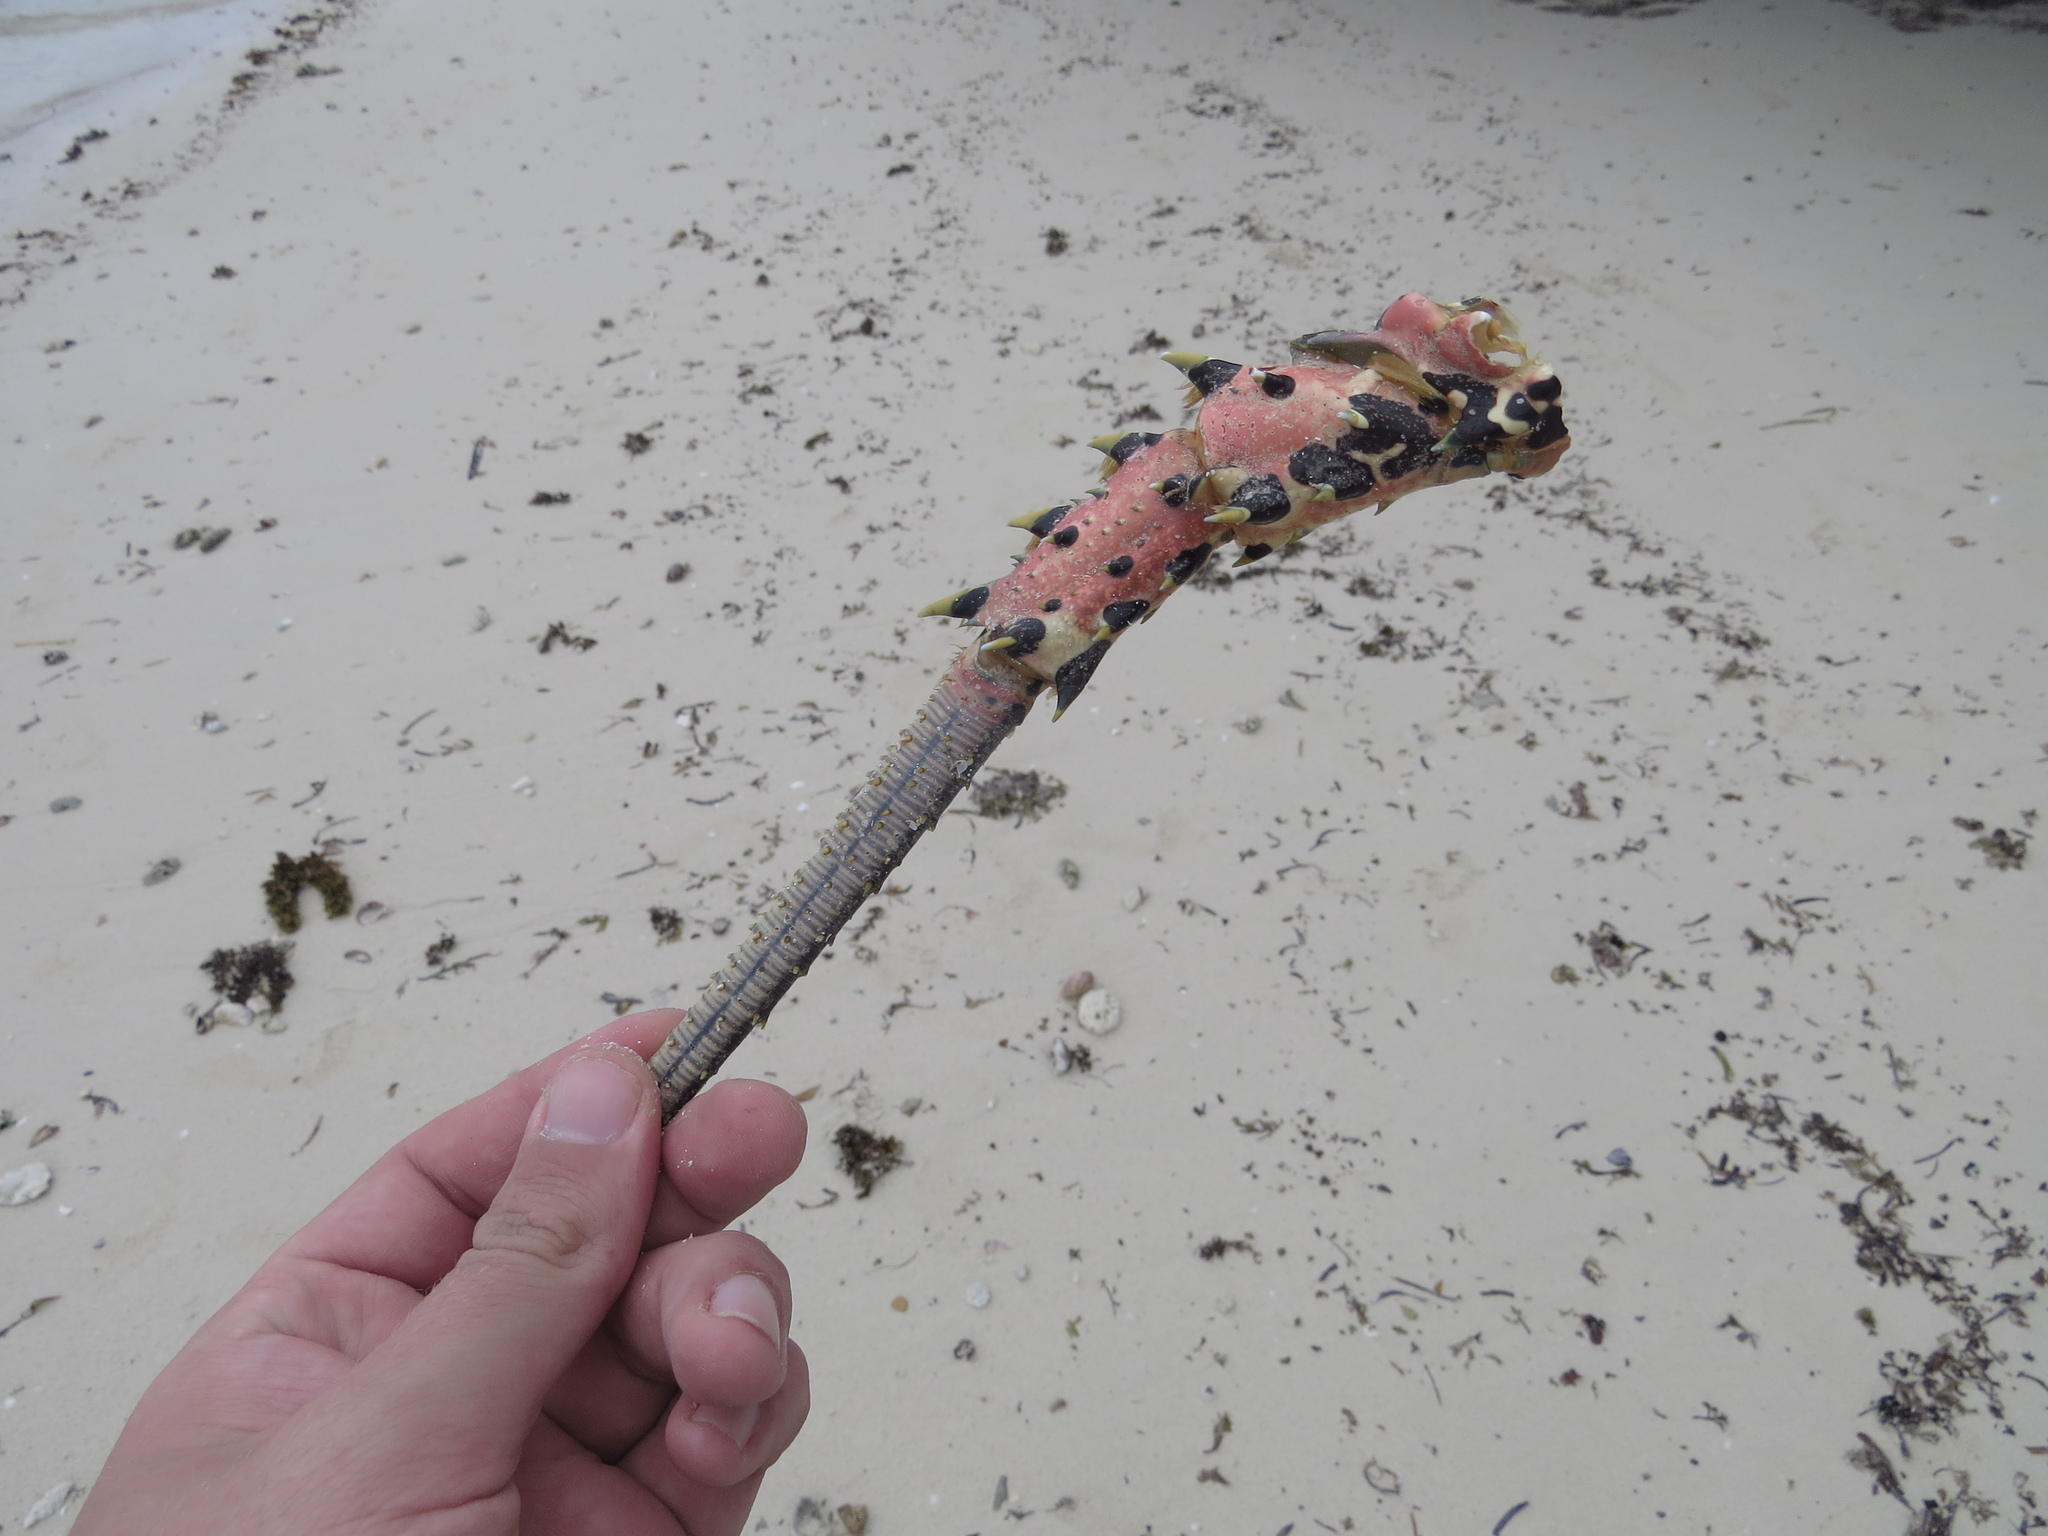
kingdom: Animalia
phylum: Arthropoda
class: Malacostraca
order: Decapoda
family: Palinuridae
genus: Panulirus
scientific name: Panulirus versicolor
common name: Painted spiny lobster
